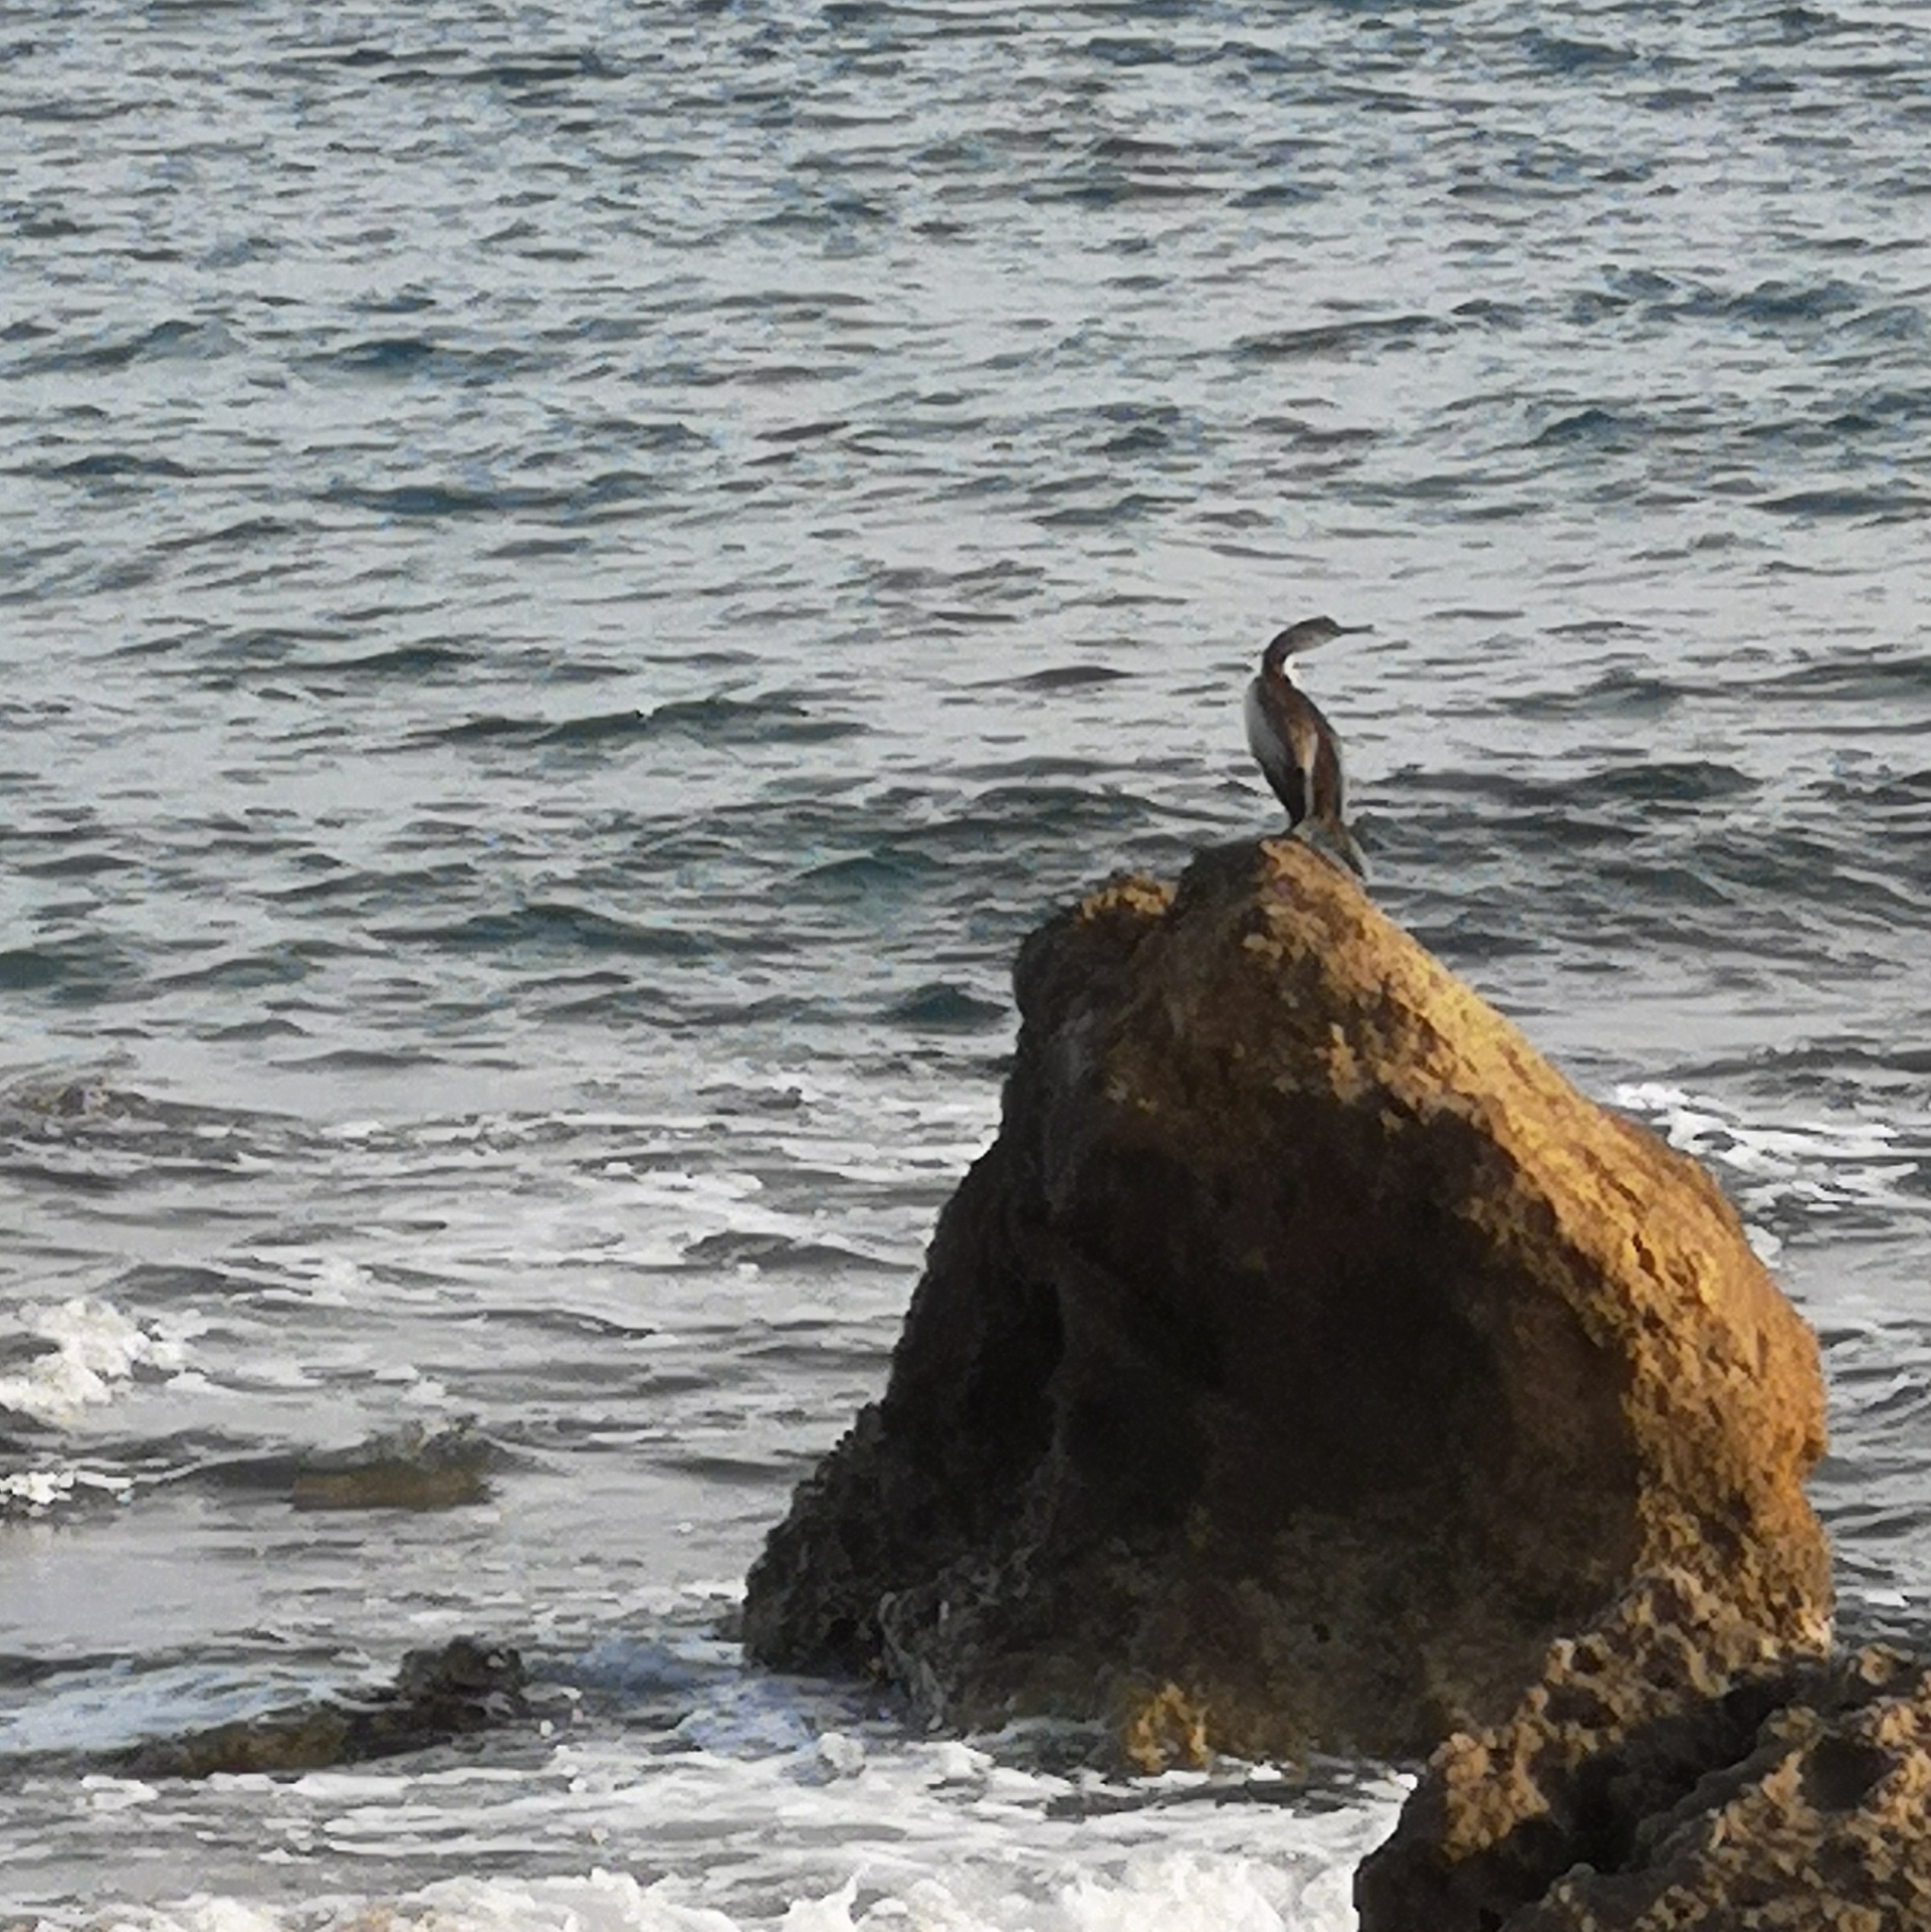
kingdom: Animalia
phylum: Chordata
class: Aves
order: Suliformes
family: Phalacrocoracidae
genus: Phalacrocorax
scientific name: Phalacrocorax aristotelis
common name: European shag
